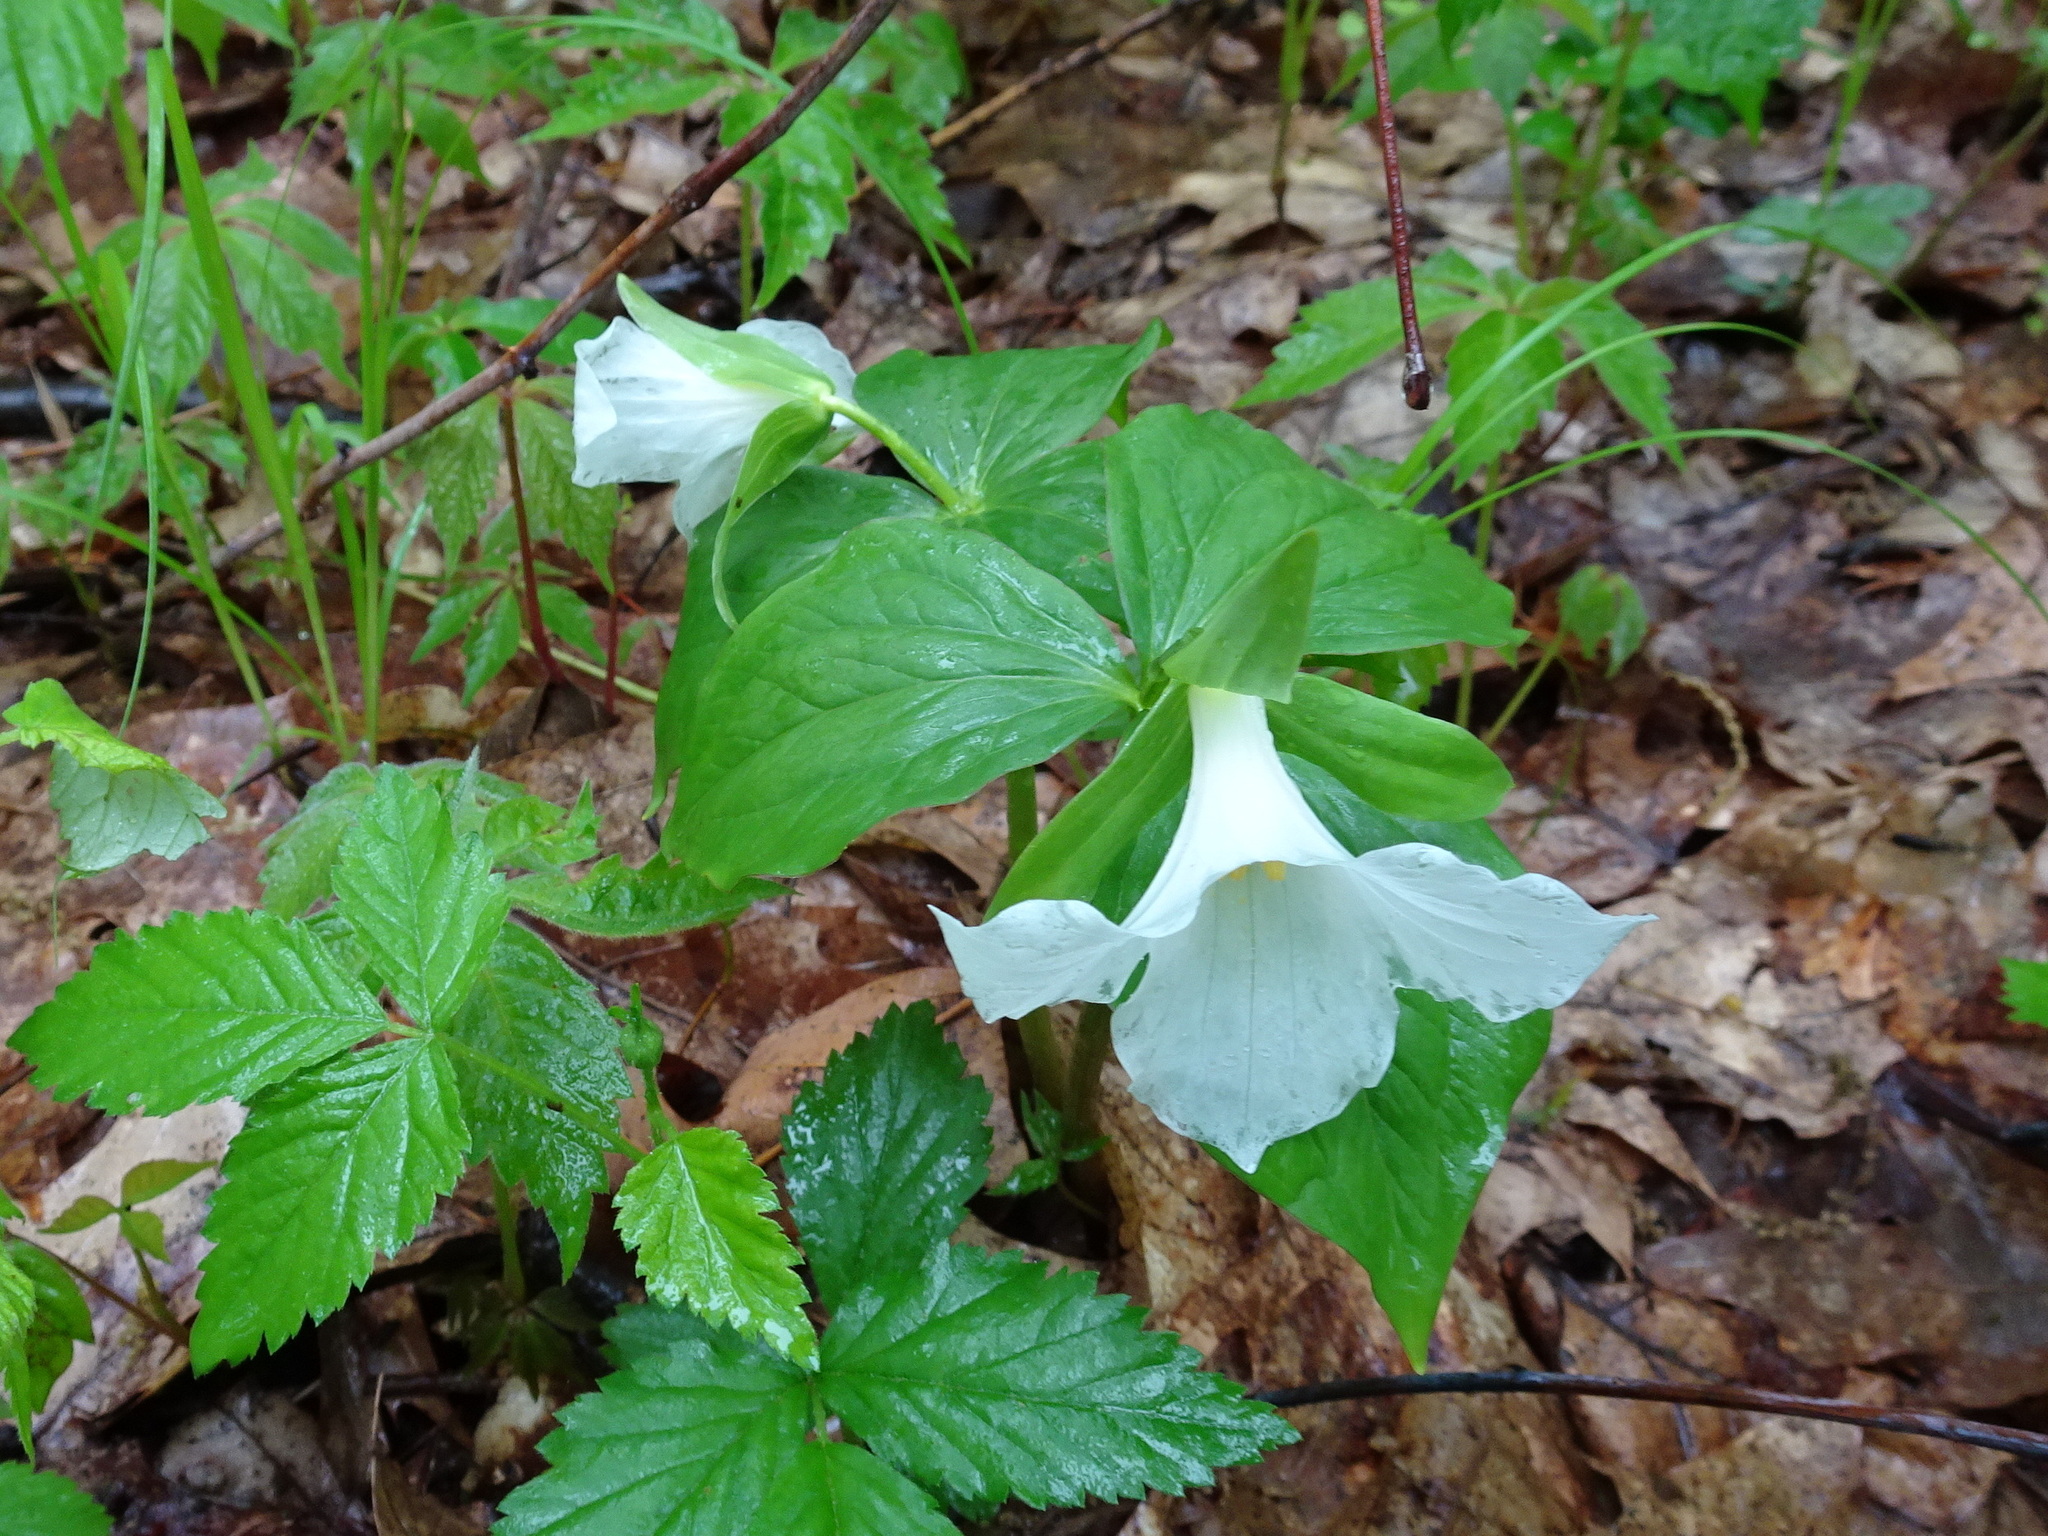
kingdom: Plantae
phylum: Tracheophyta
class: Liliopsida
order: Liliales
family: Melanthiaceae
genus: Trillium
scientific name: Trillium grandiflorum
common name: Great white trillium
